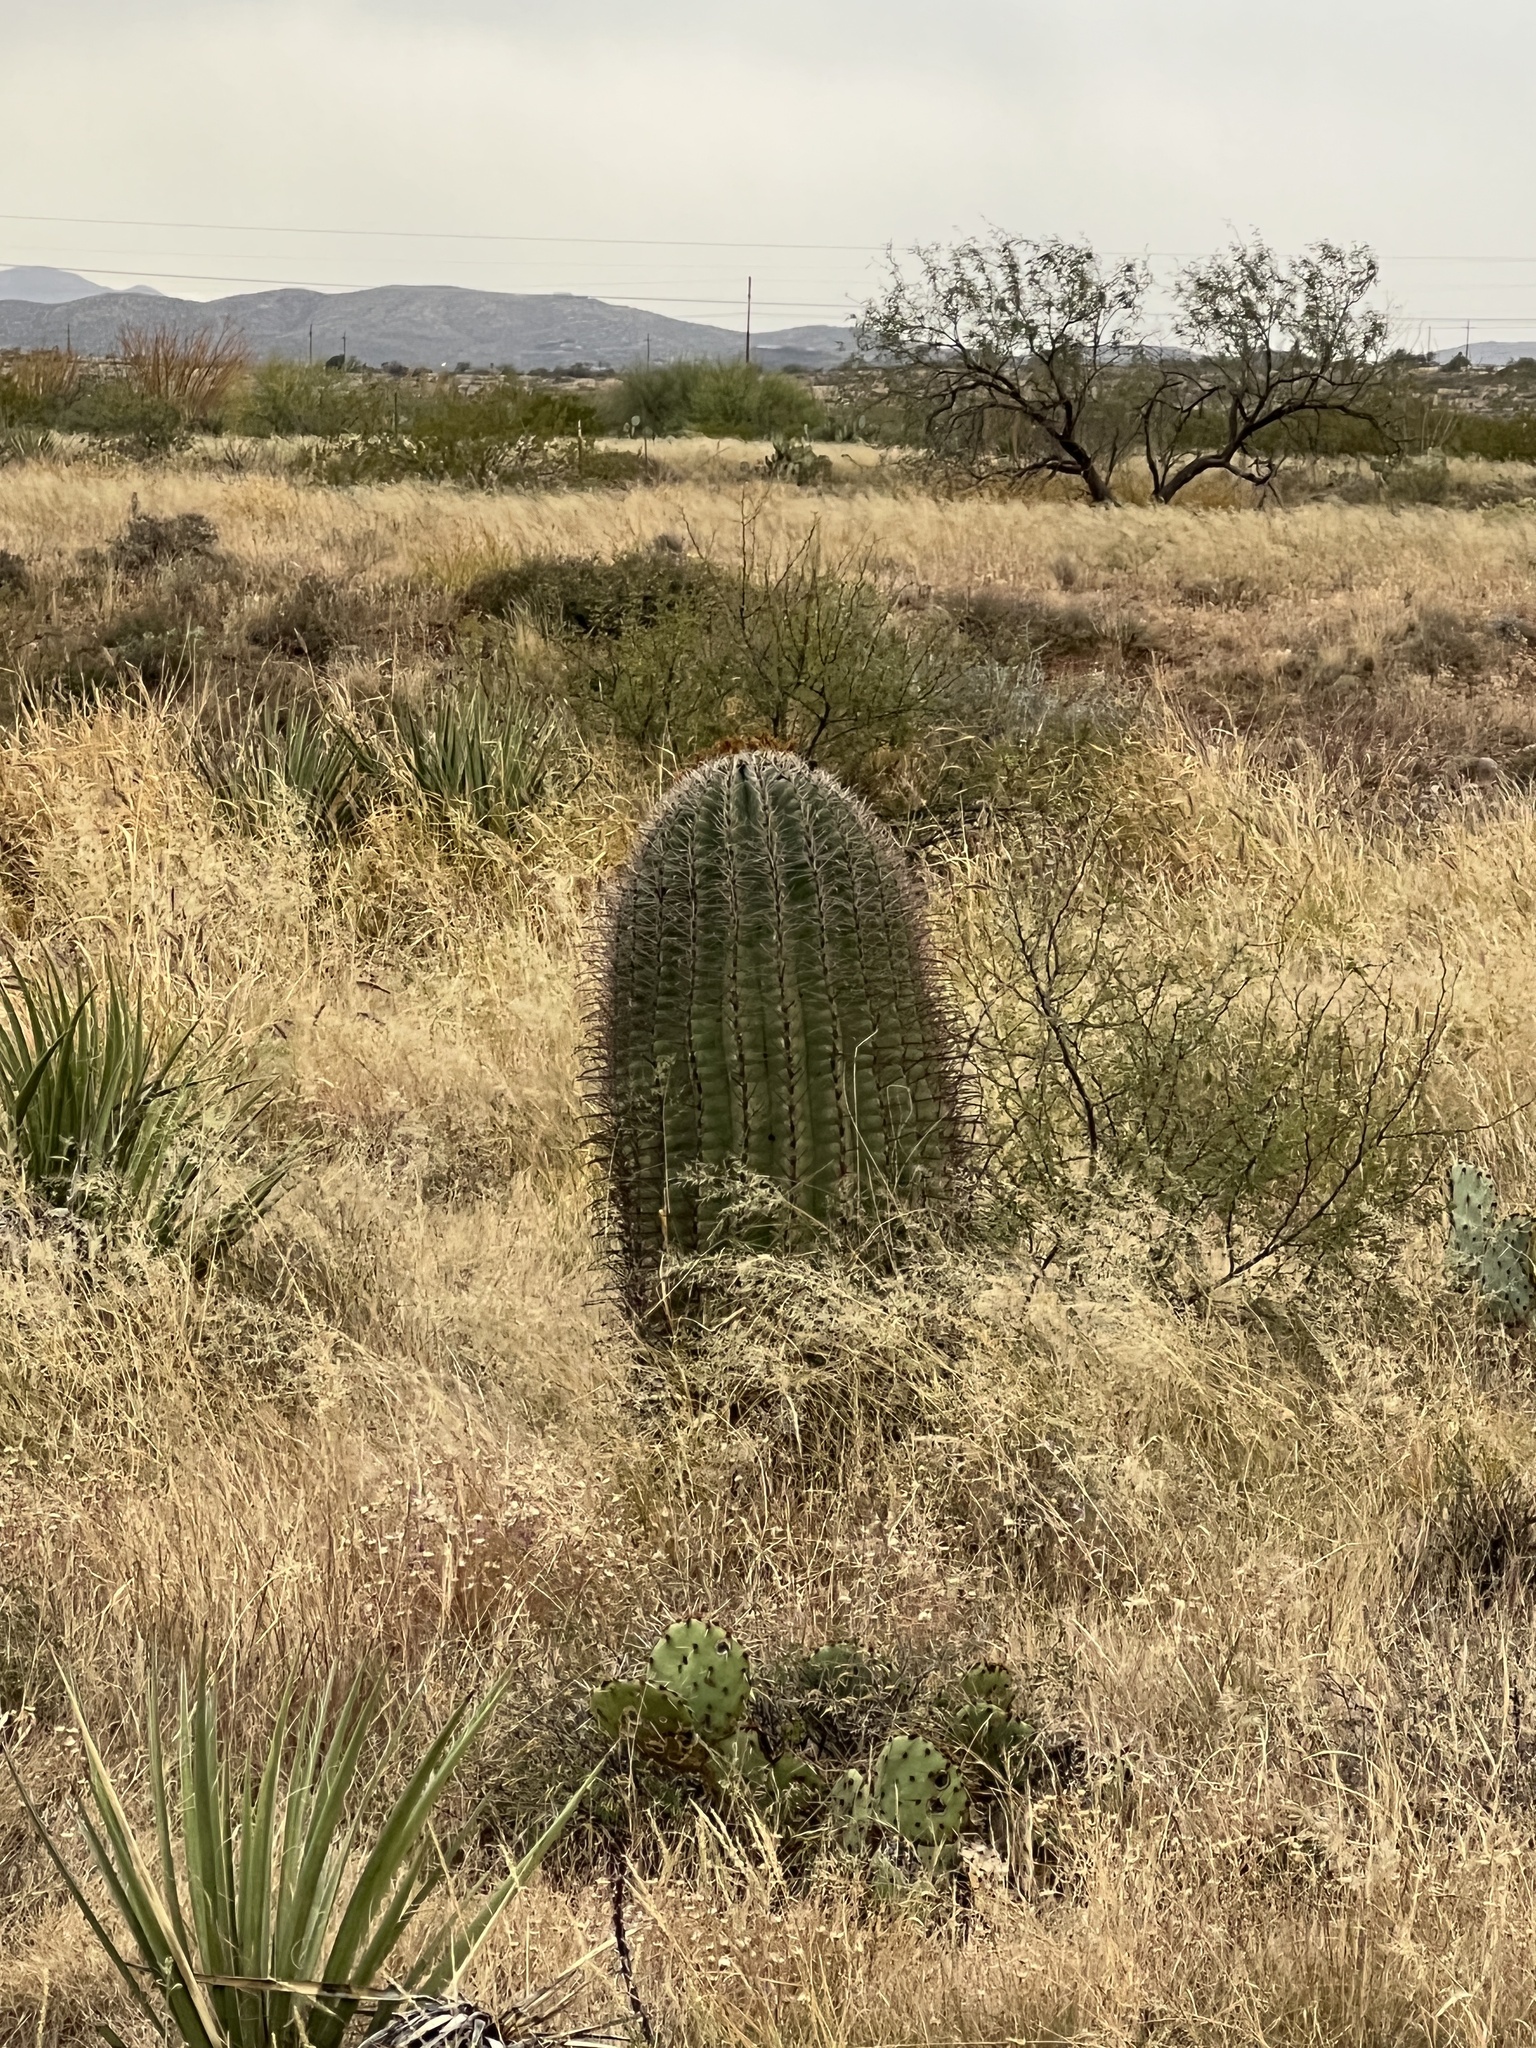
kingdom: Plantae
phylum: Tracheophyta
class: Magnoliopsida
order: Caryophyllales
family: Cactaceae
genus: Ferocactus
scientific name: Ferocactus wislizeni
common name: Candy barrel cactus
